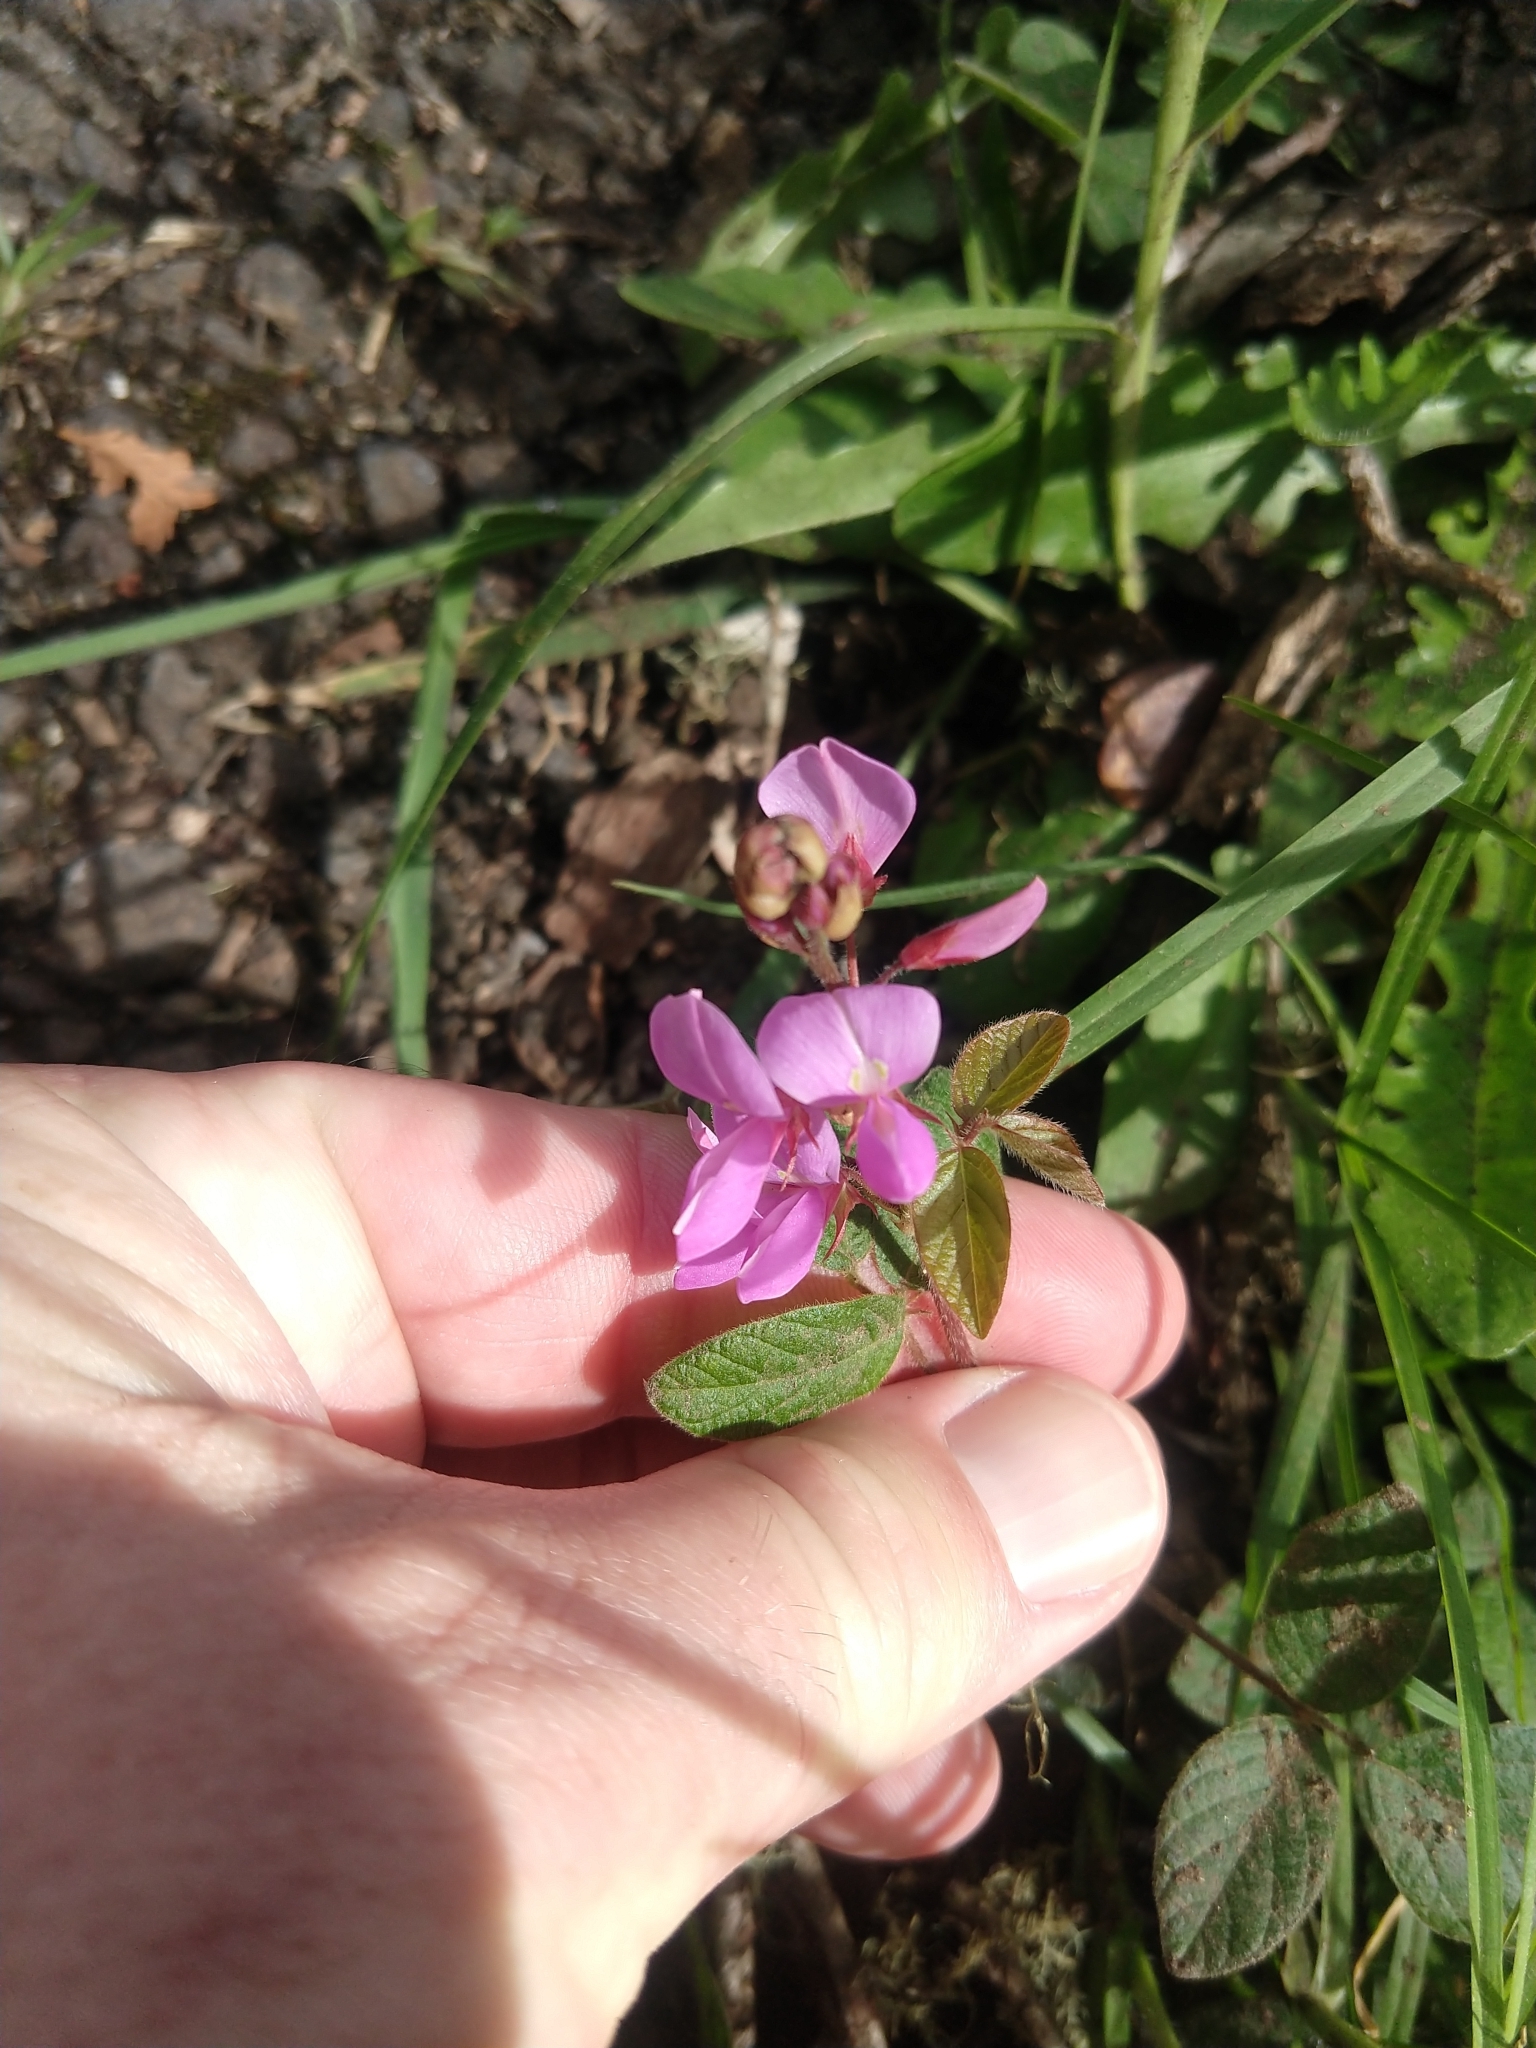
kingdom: Plantae
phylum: Tracheophyta
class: Magnoliopsida
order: Fabales
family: Fabaceae
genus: Desmodium
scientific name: Desmodium incanum
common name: Tickclover
